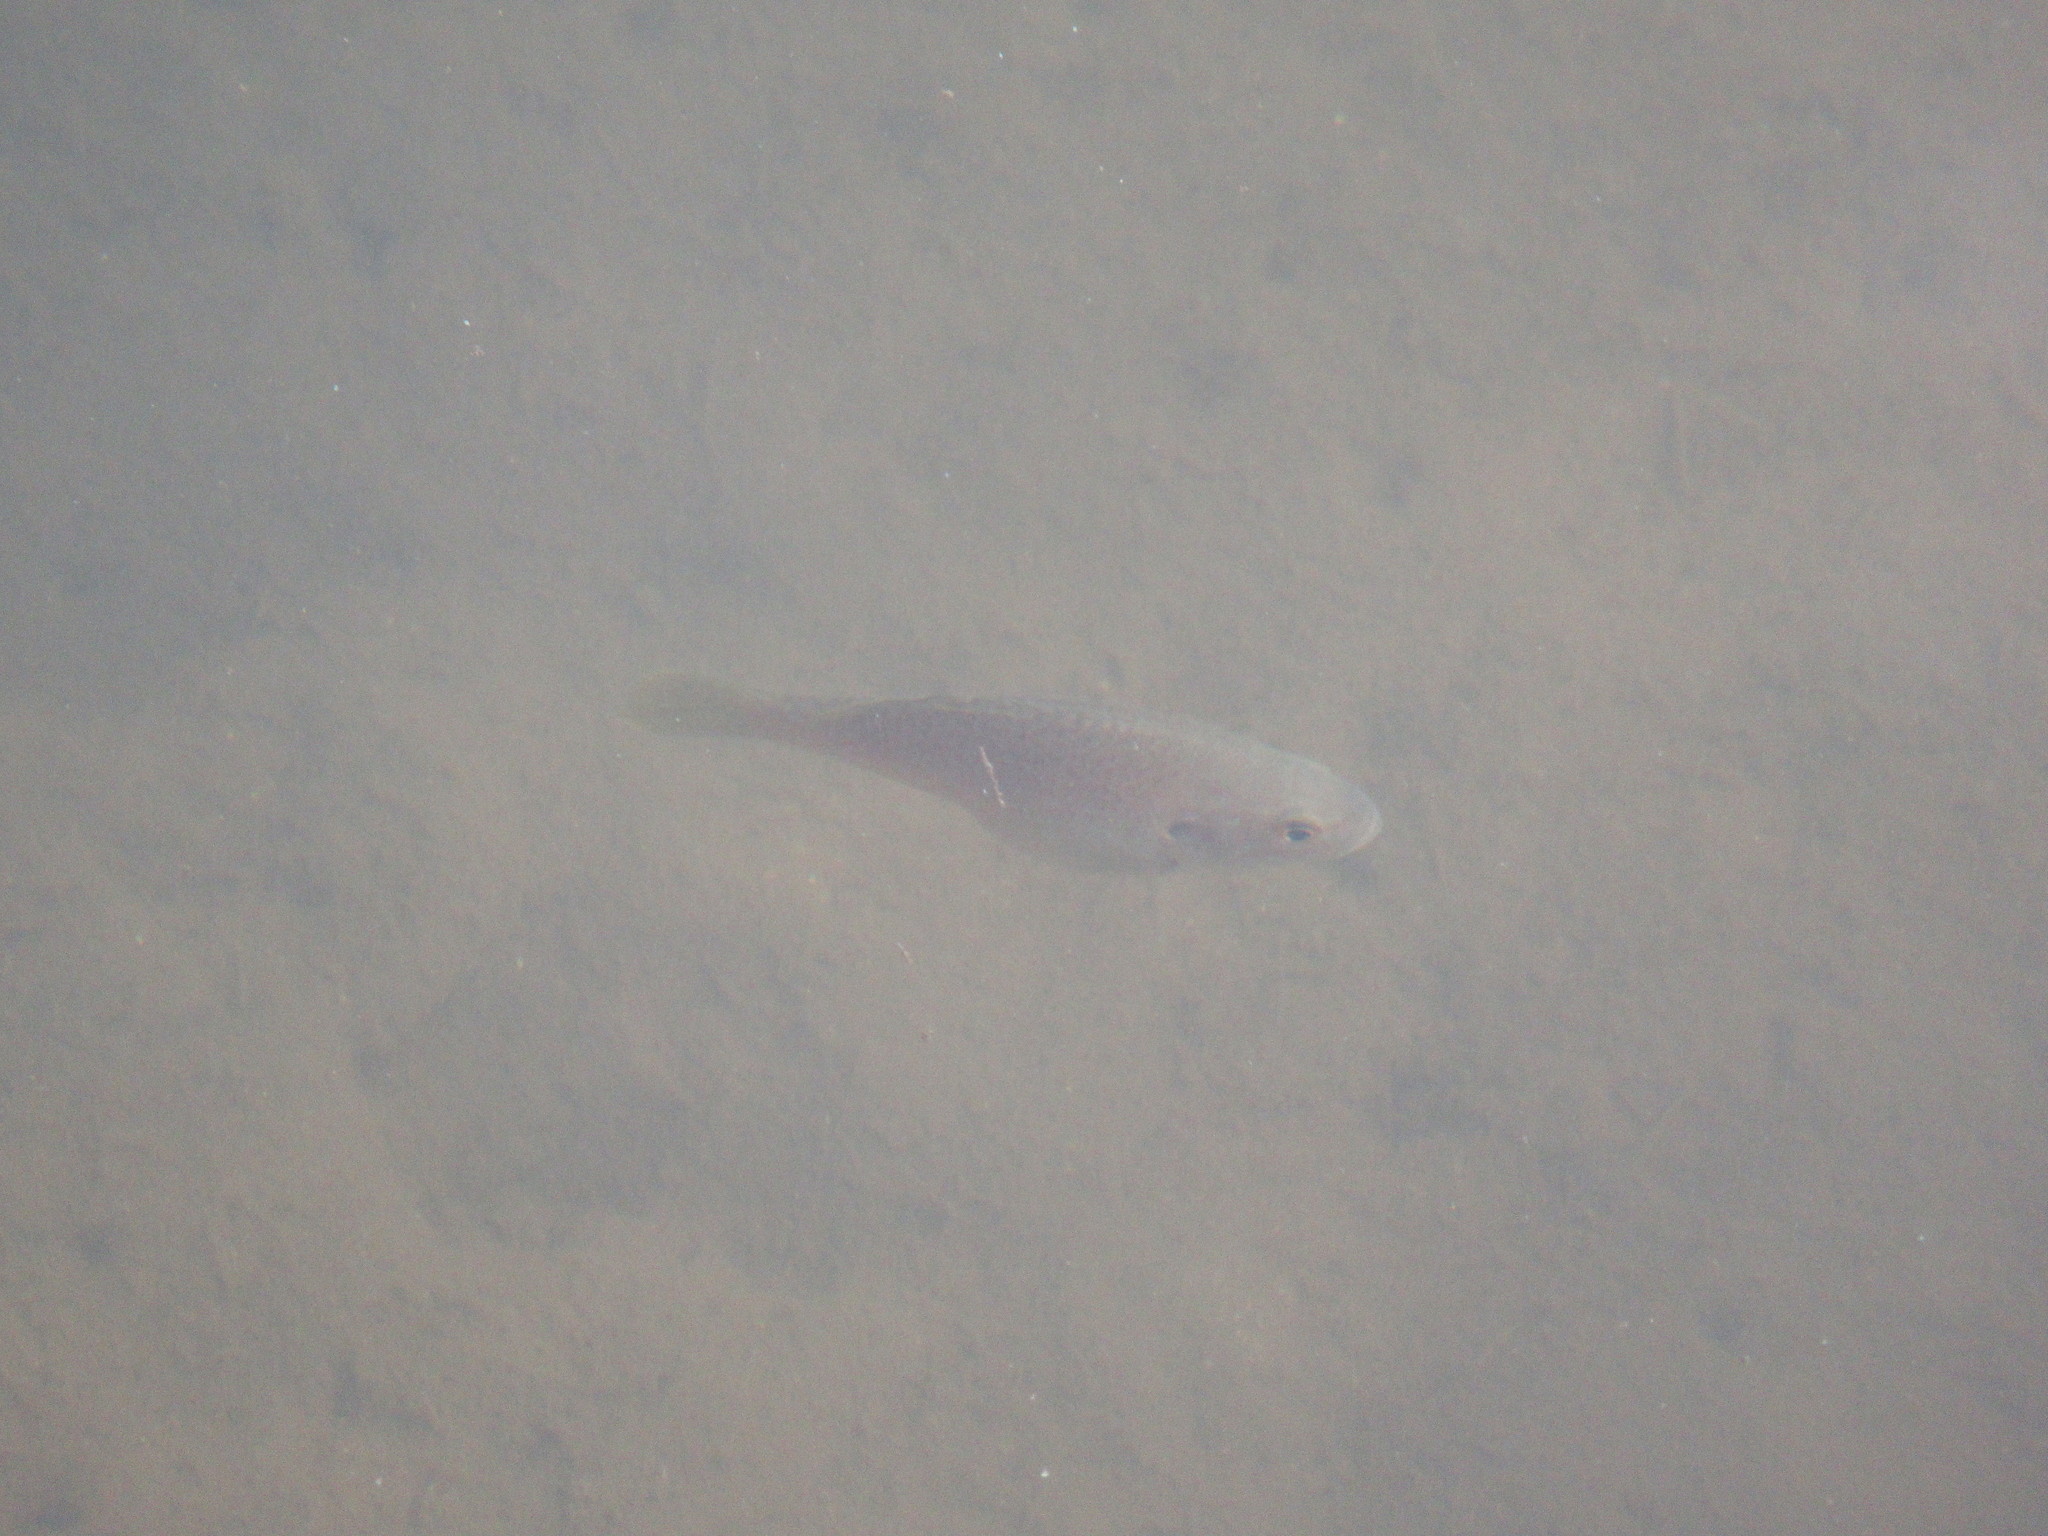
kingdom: Animalia
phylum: Chordata
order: Perciformes
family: Centrarchidae
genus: Lepomis
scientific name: Lepomis cyanellus
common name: Green sunfish
